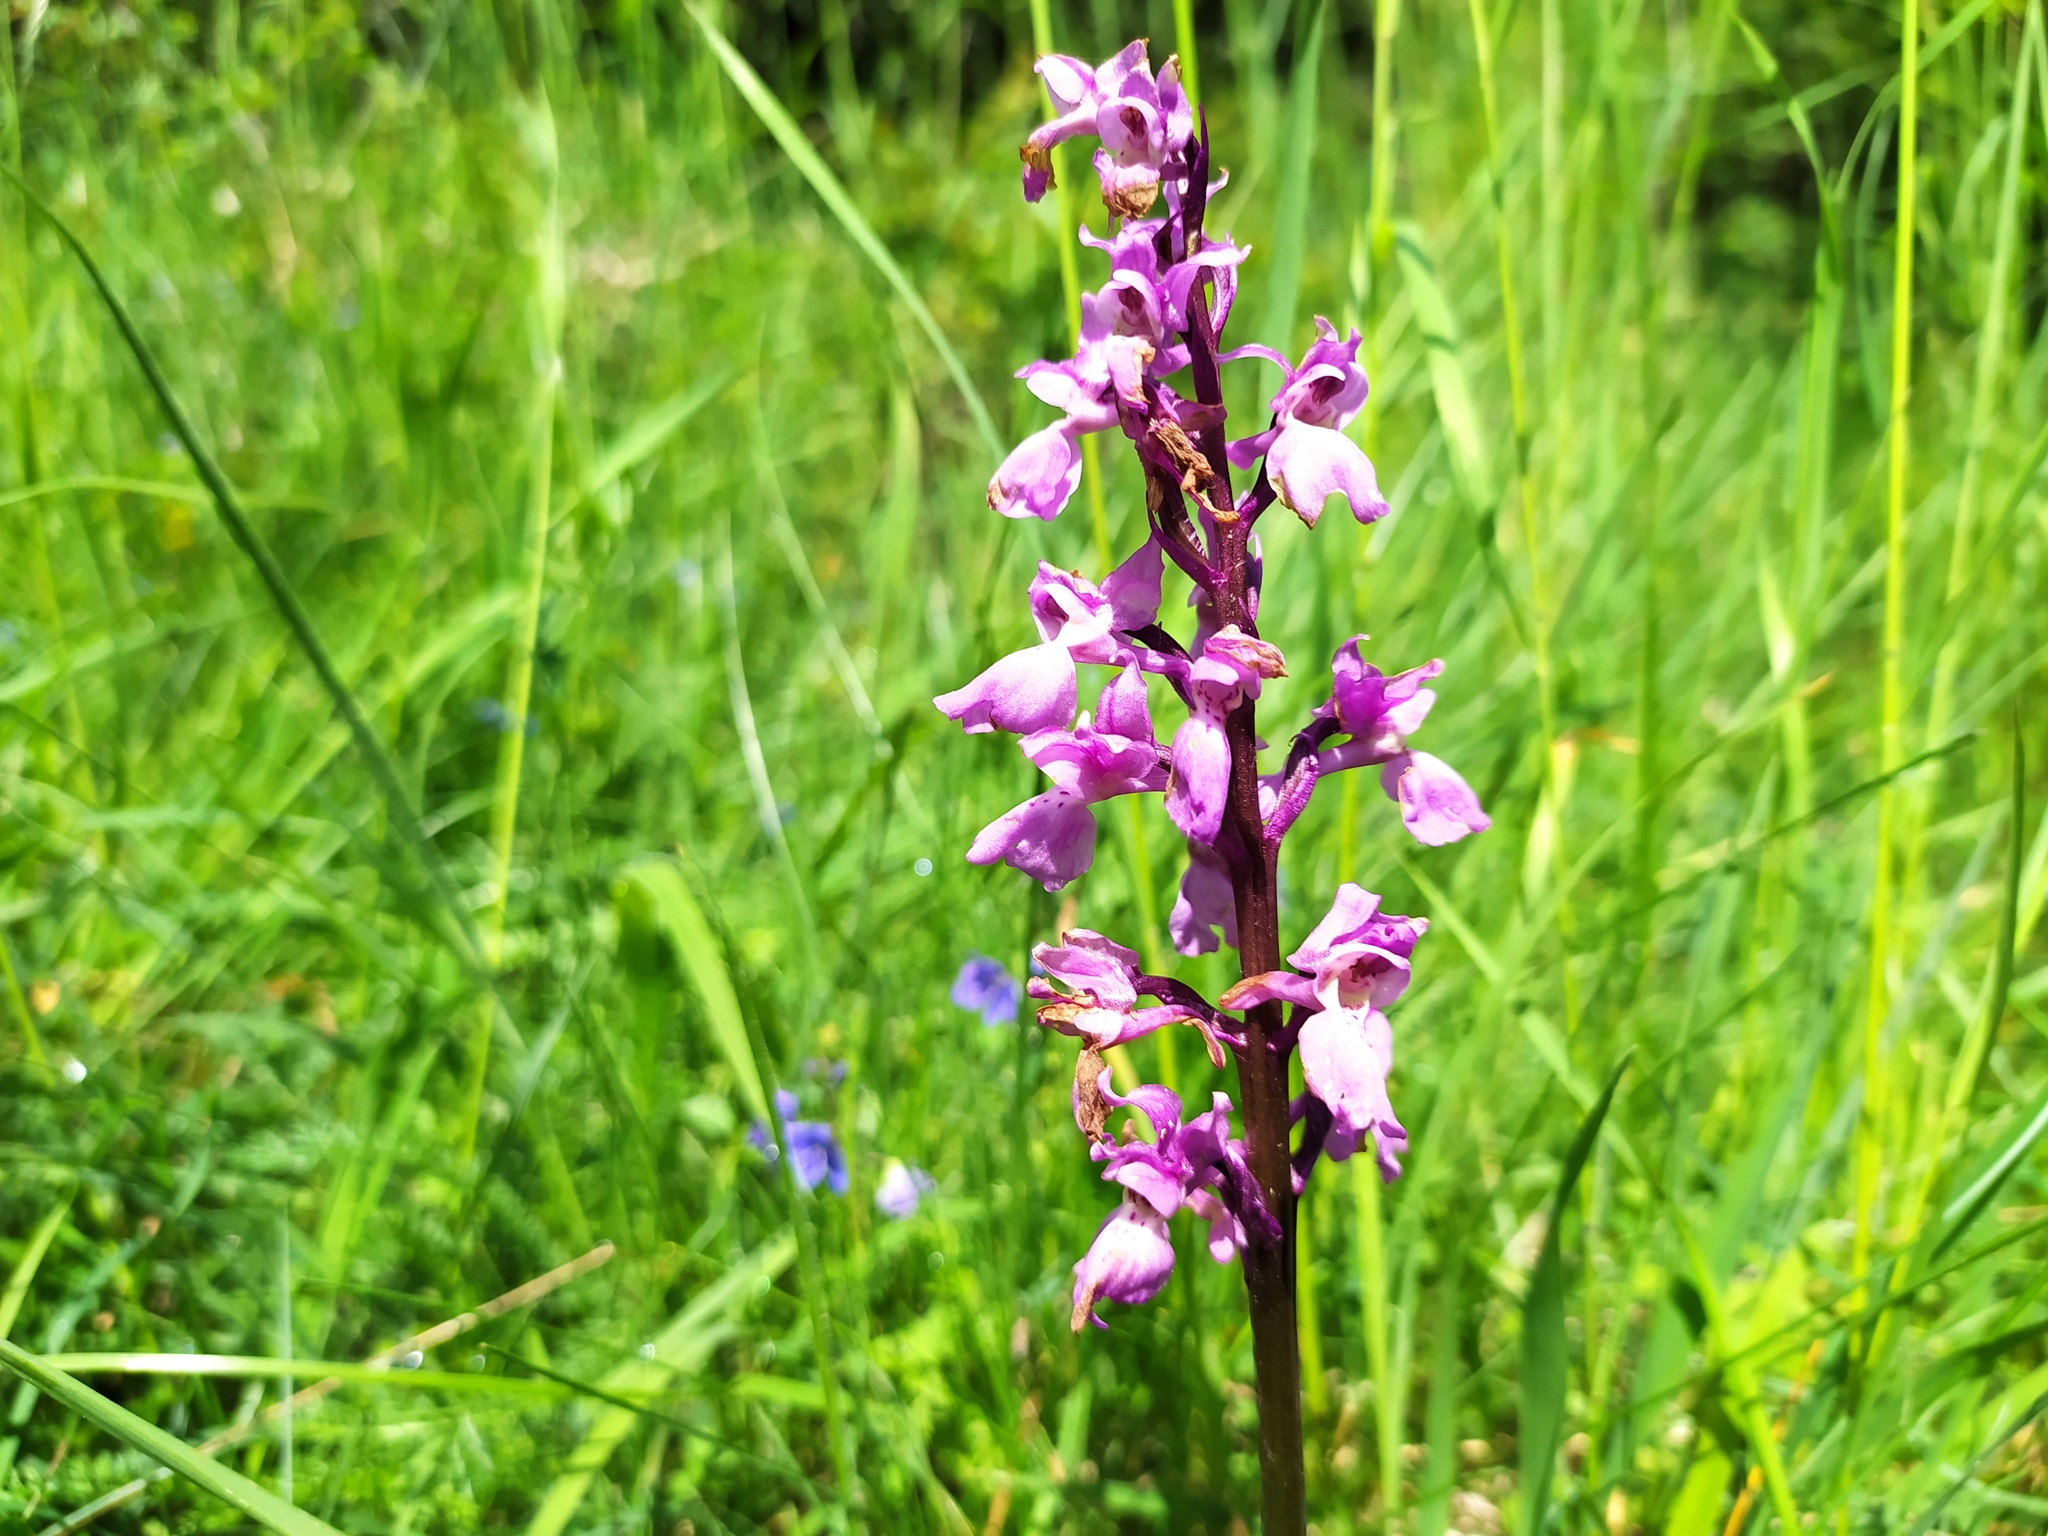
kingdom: Plantae
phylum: Tracheophyta
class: Liliopsida
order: Asparagales
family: Orchidaceae
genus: Orchis
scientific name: Orchis mascula
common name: Early-purple orchid
